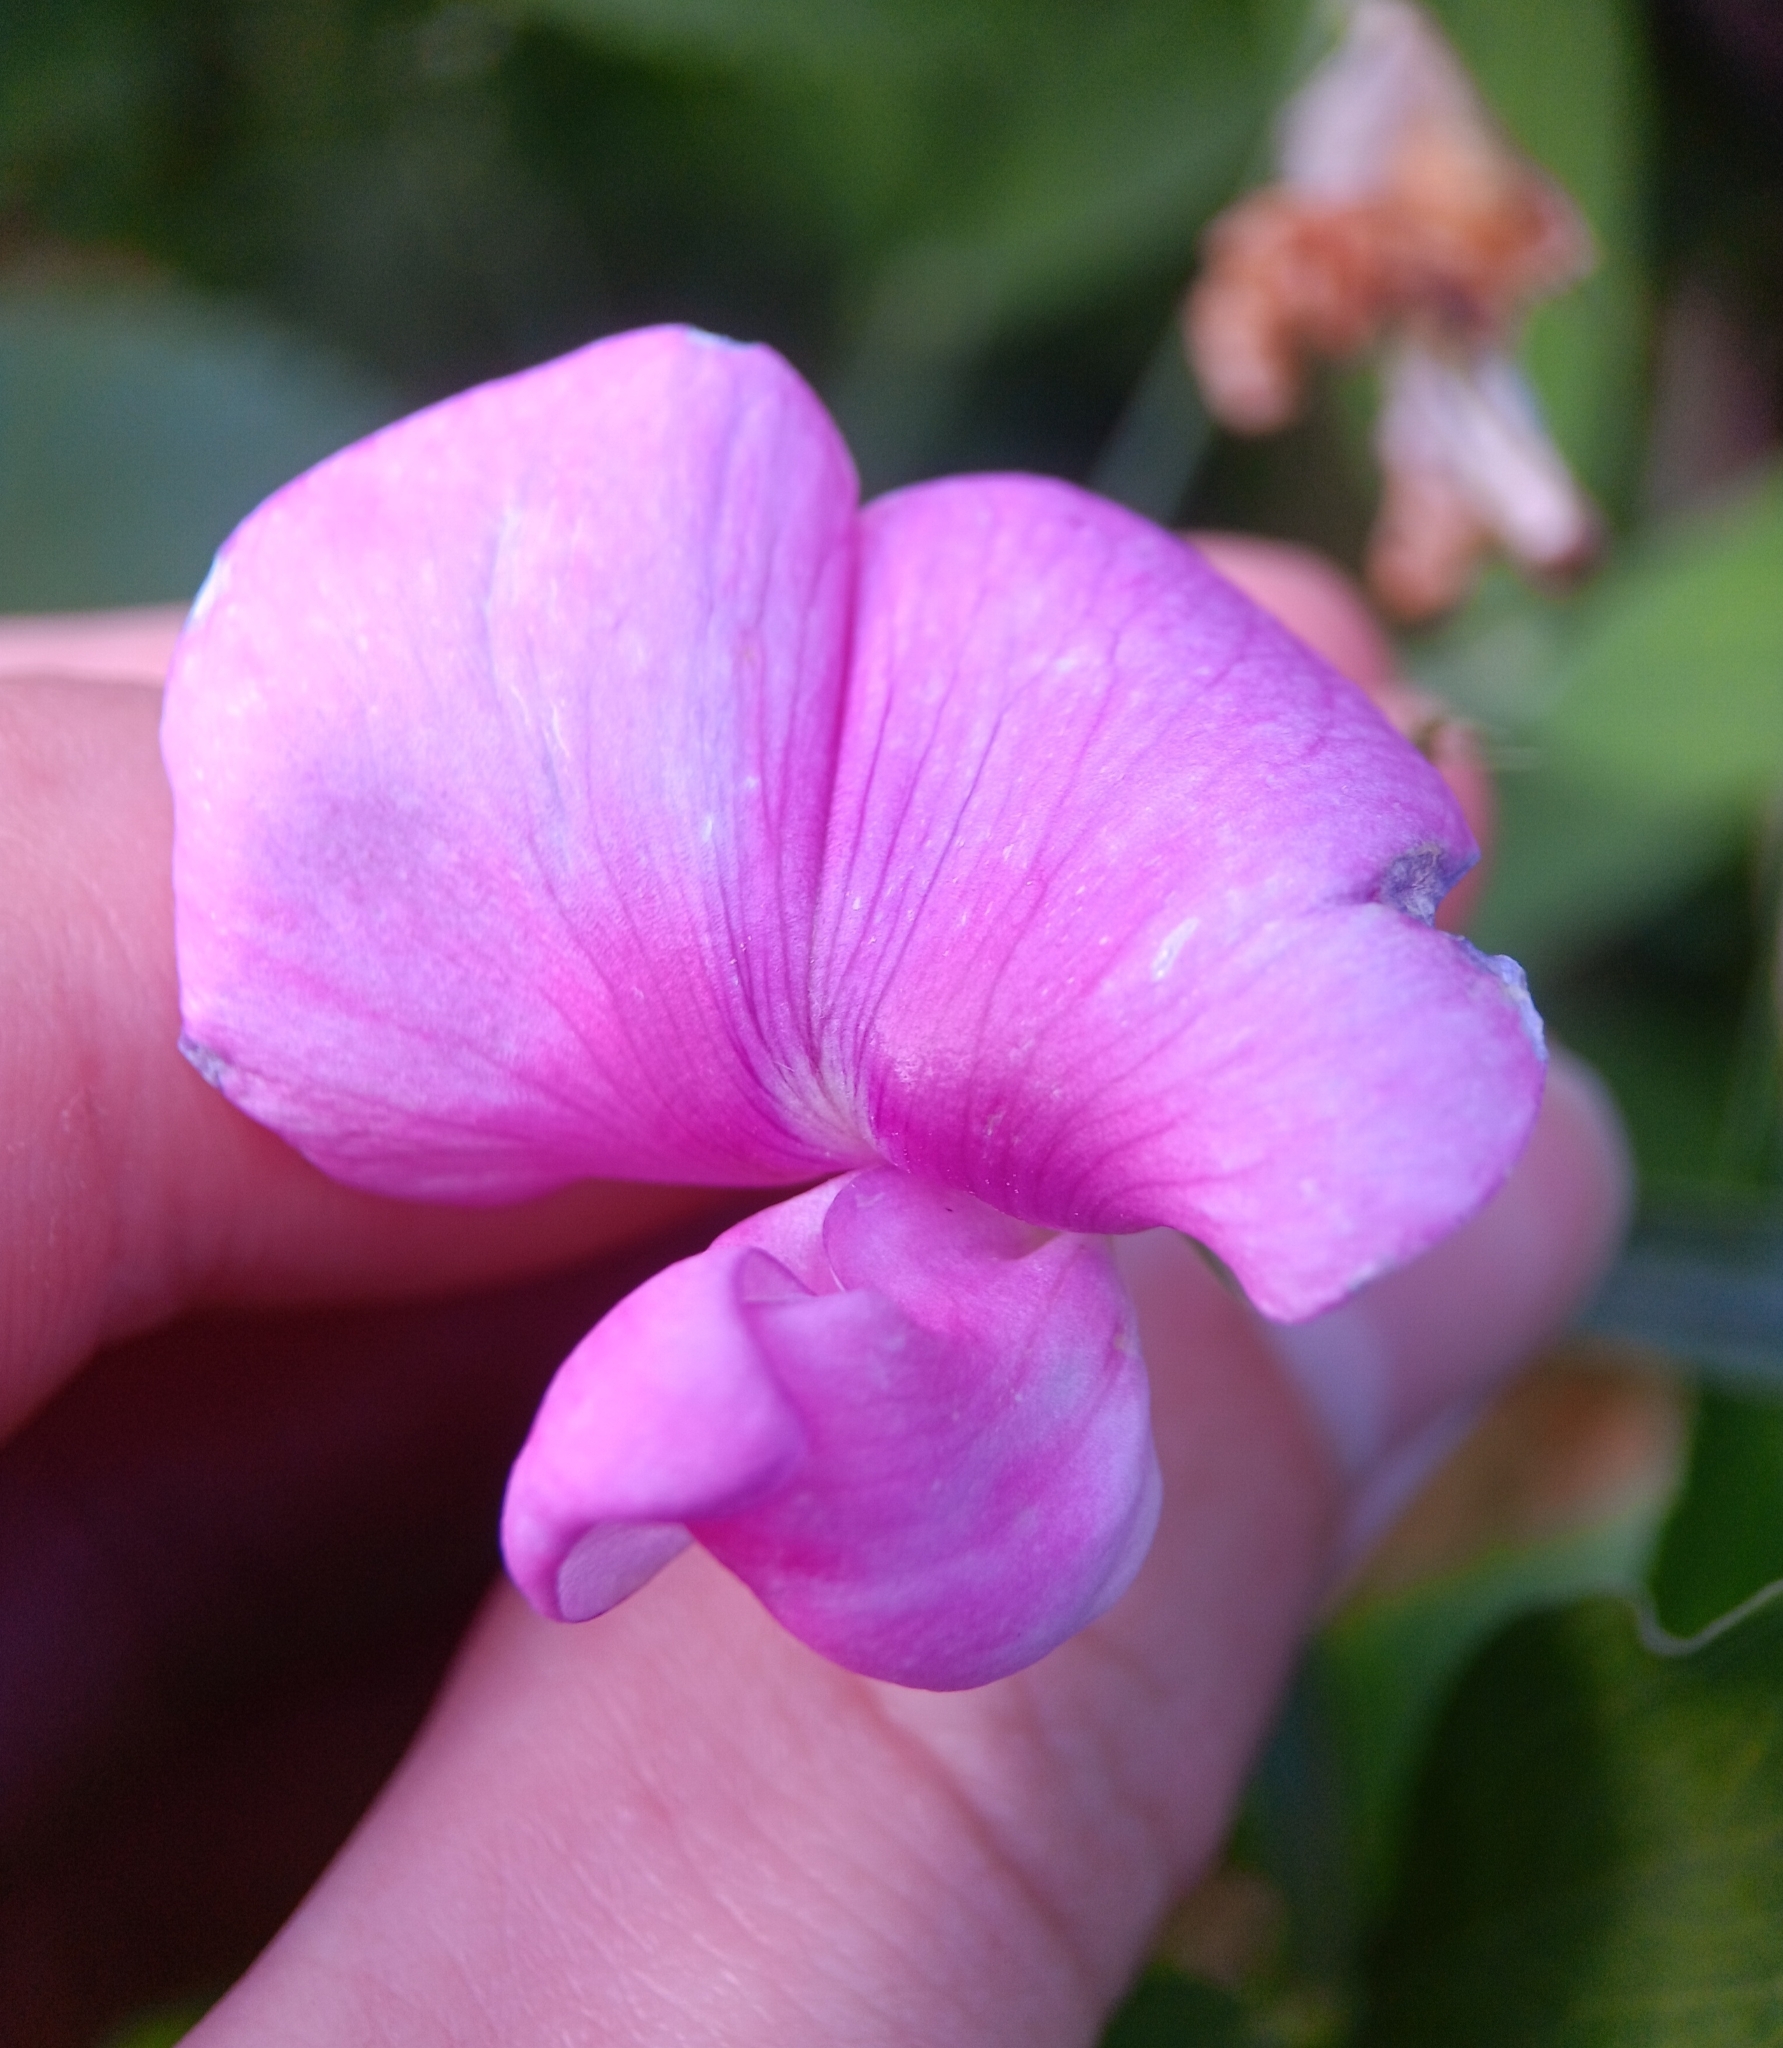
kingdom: Plantae
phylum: Tracheophyta
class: Magnoliopsida
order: Fabales
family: Fabaceae
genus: Lathyrus
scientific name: Lathyrus latifolius
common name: Perennial pea
